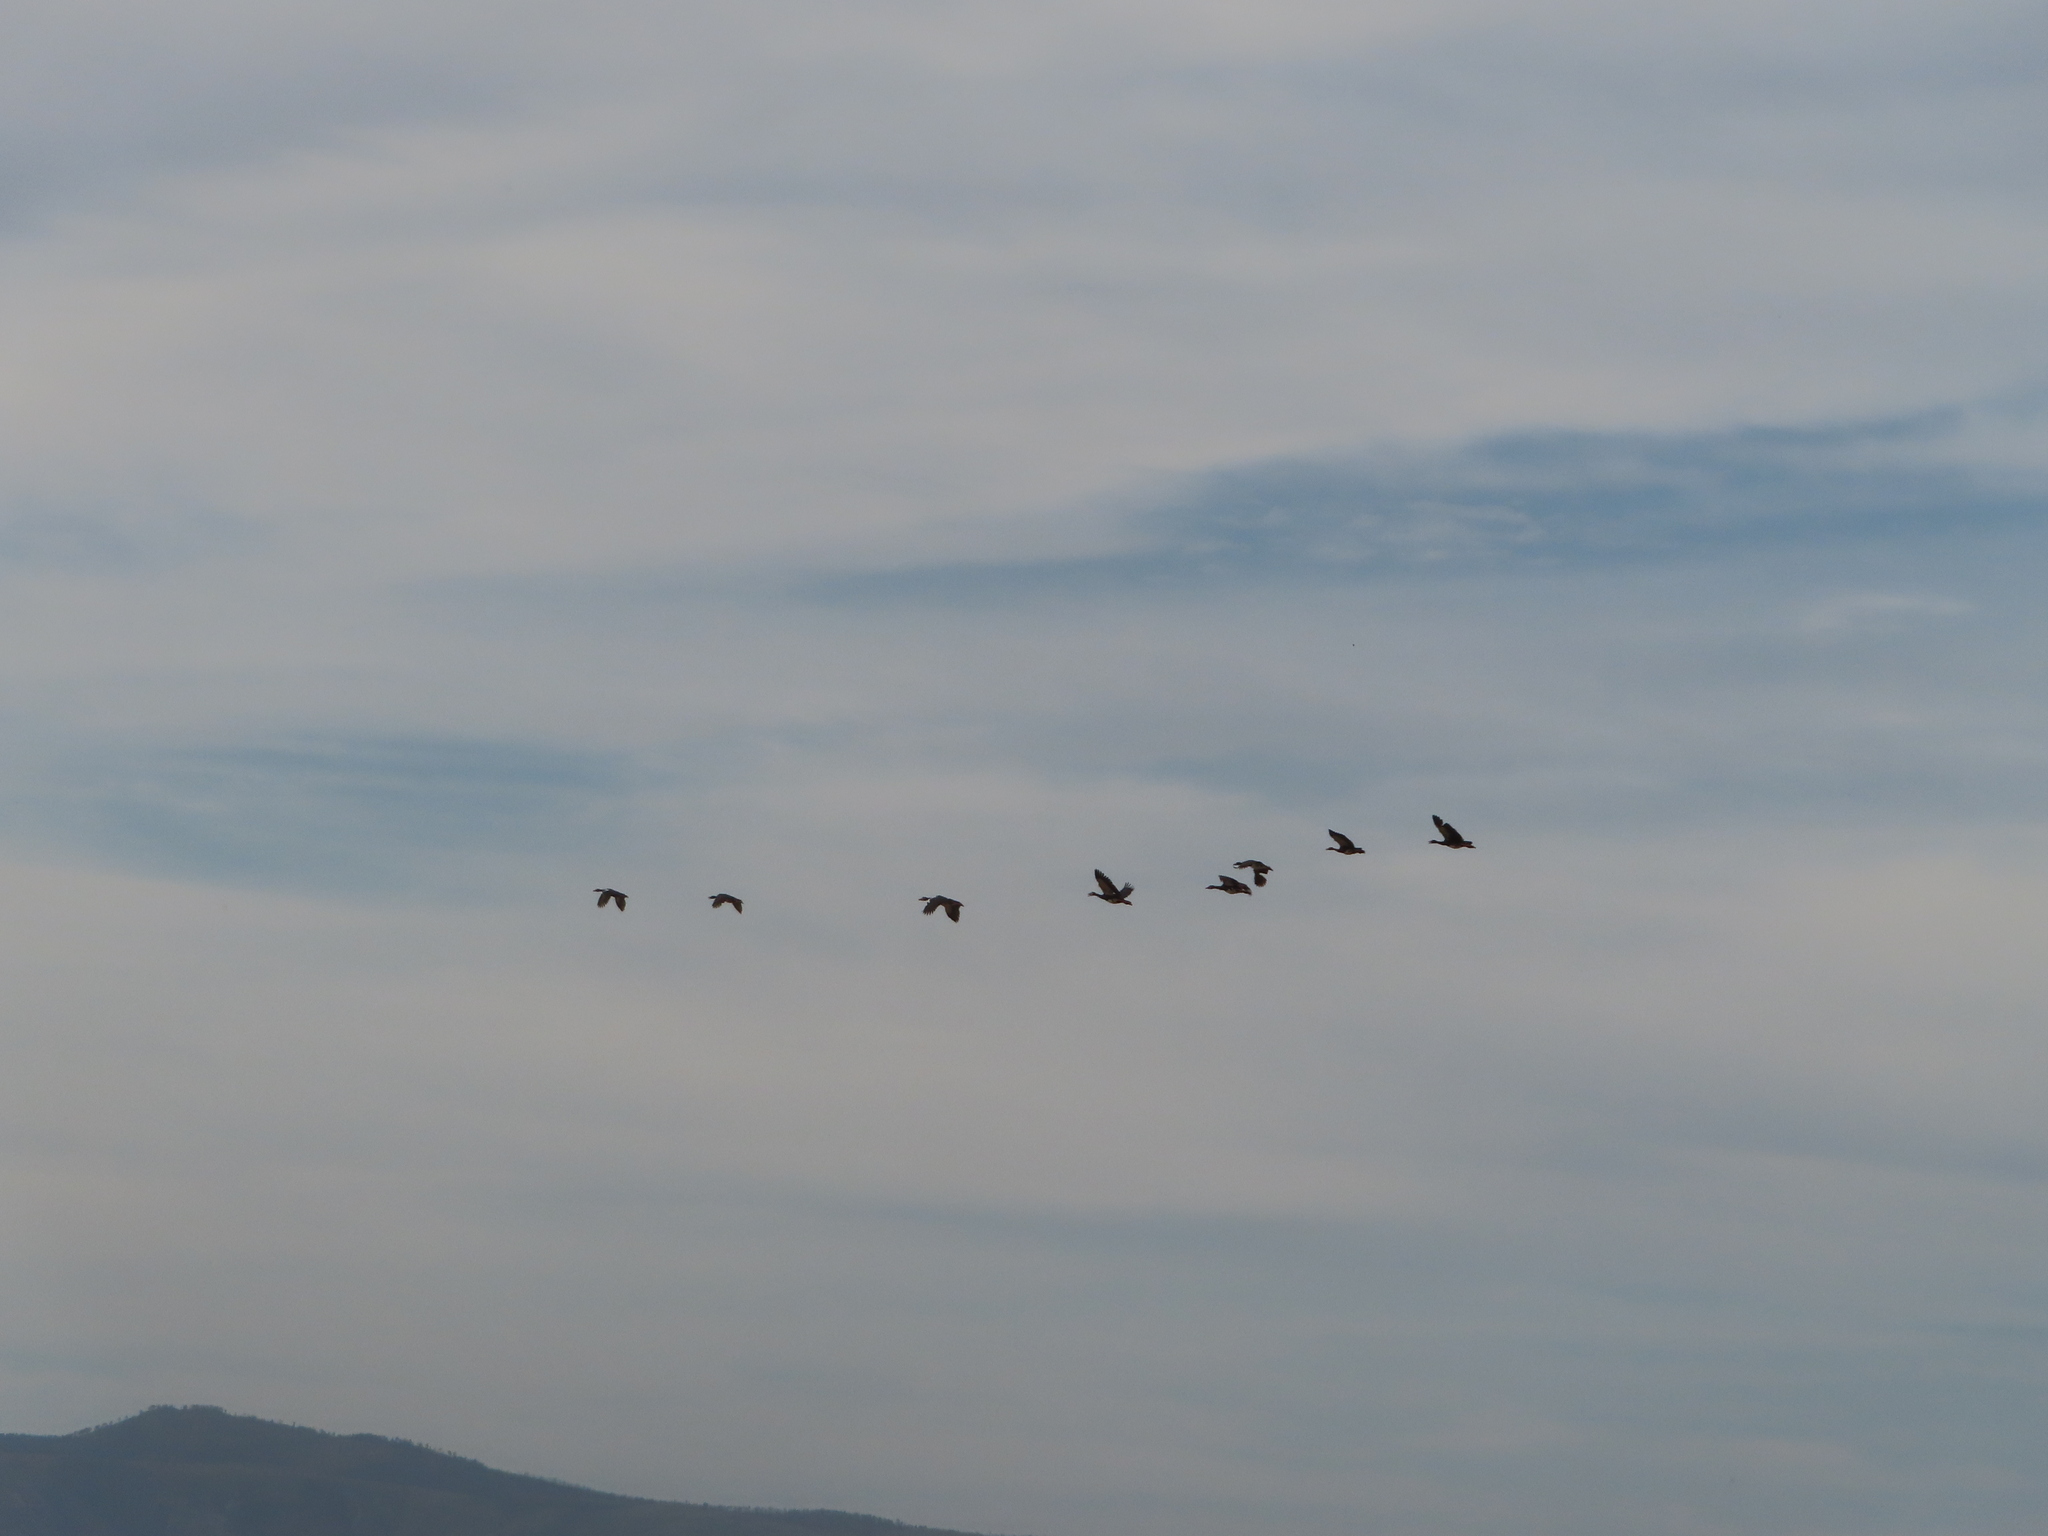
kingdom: Animalia
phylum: Chordata
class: Aves
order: Anseriformes
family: Anatidae
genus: Plectropterus
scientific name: Plectropterus gambensis
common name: Spur-winged goose
